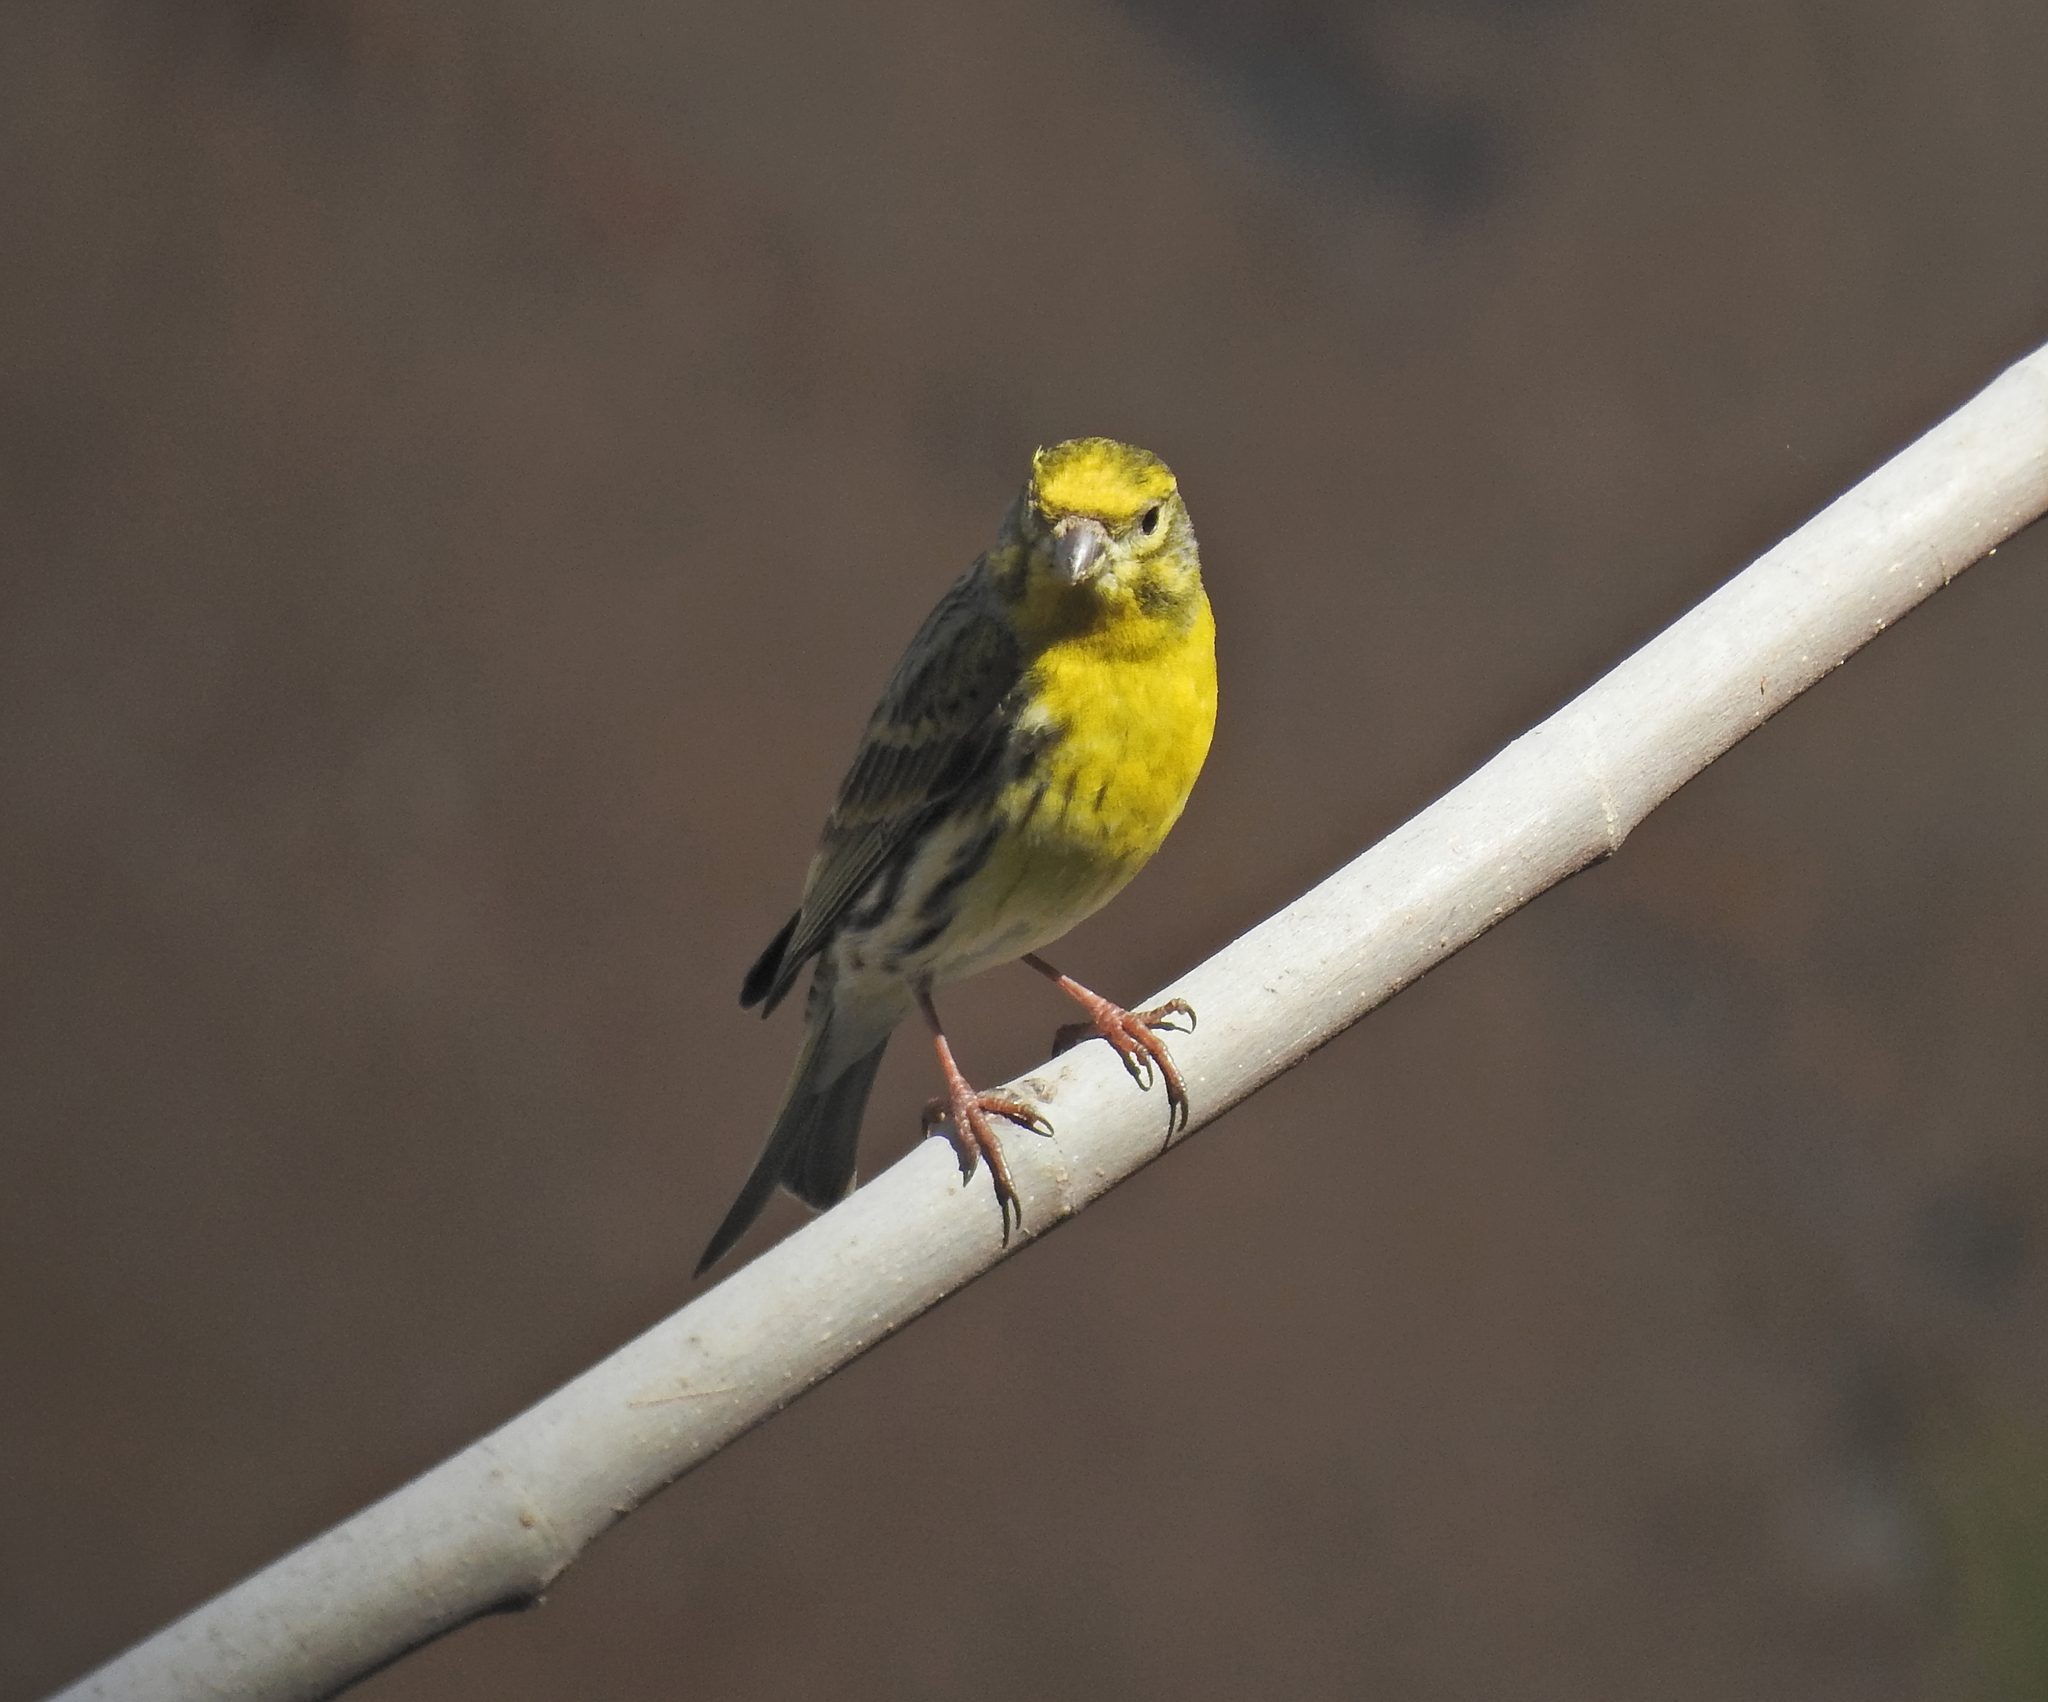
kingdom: Animalia
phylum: Chordata
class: Aves
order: Passeriformes
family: Fringillidae
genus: Serinus
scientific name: Serinus serinus
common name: European serin
